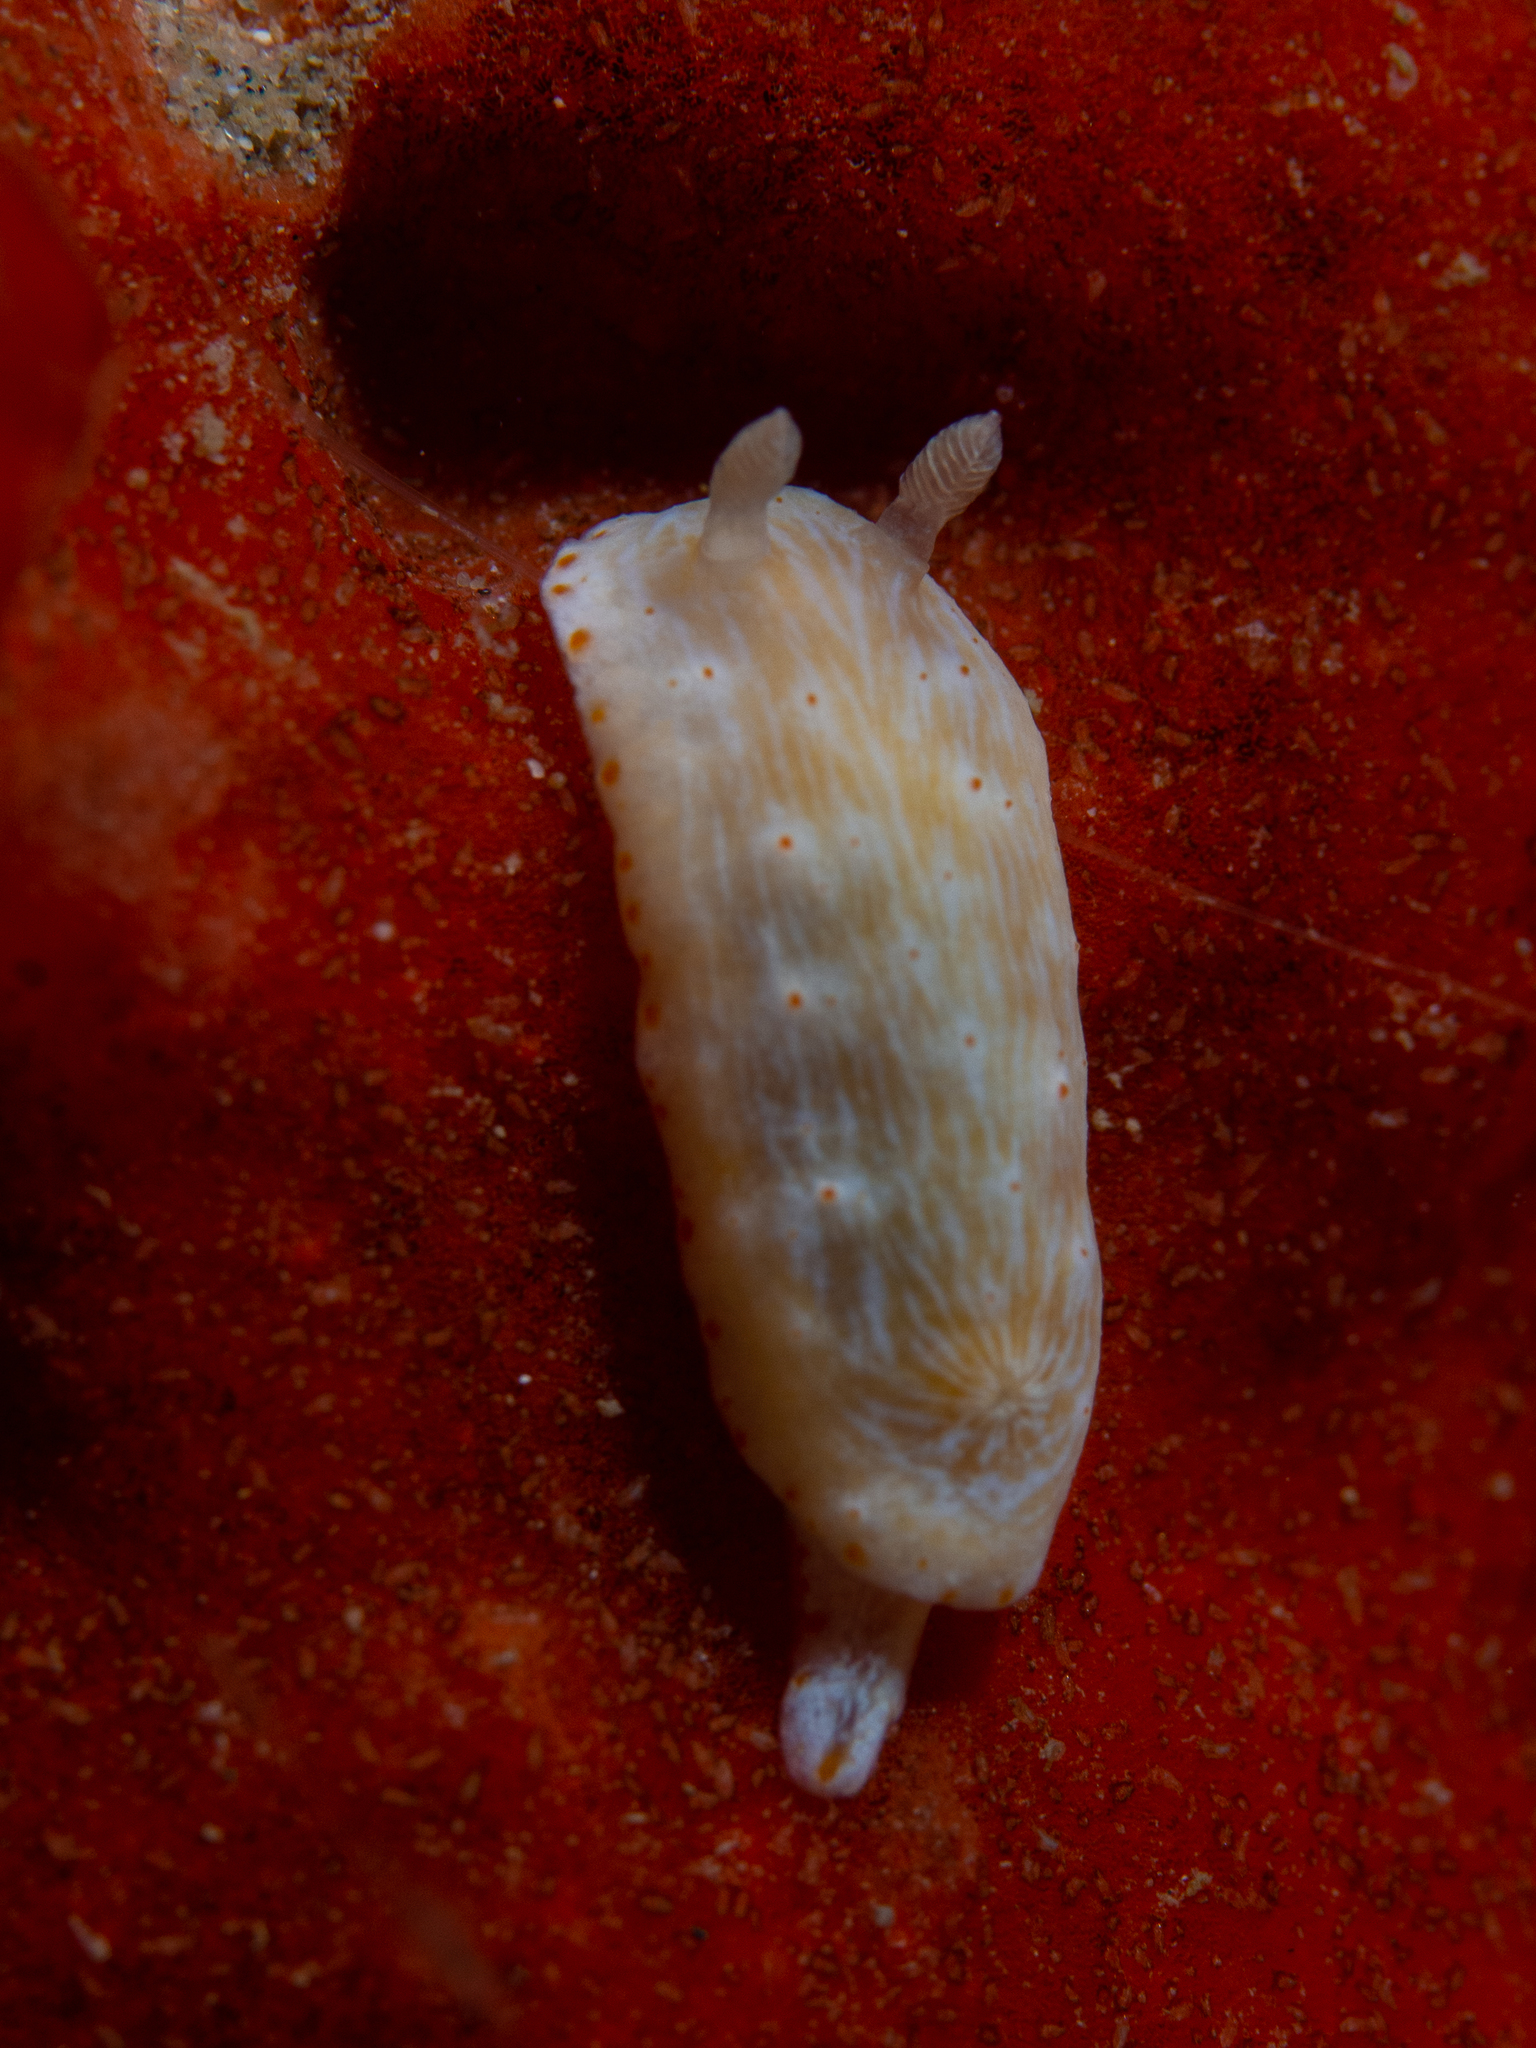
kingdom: Animalia
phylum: Mollusca
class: Gastropoda
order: Nudibranchia
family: Chromodorididae
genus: Goniobranchus
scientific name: Goniobranchus epicurius
